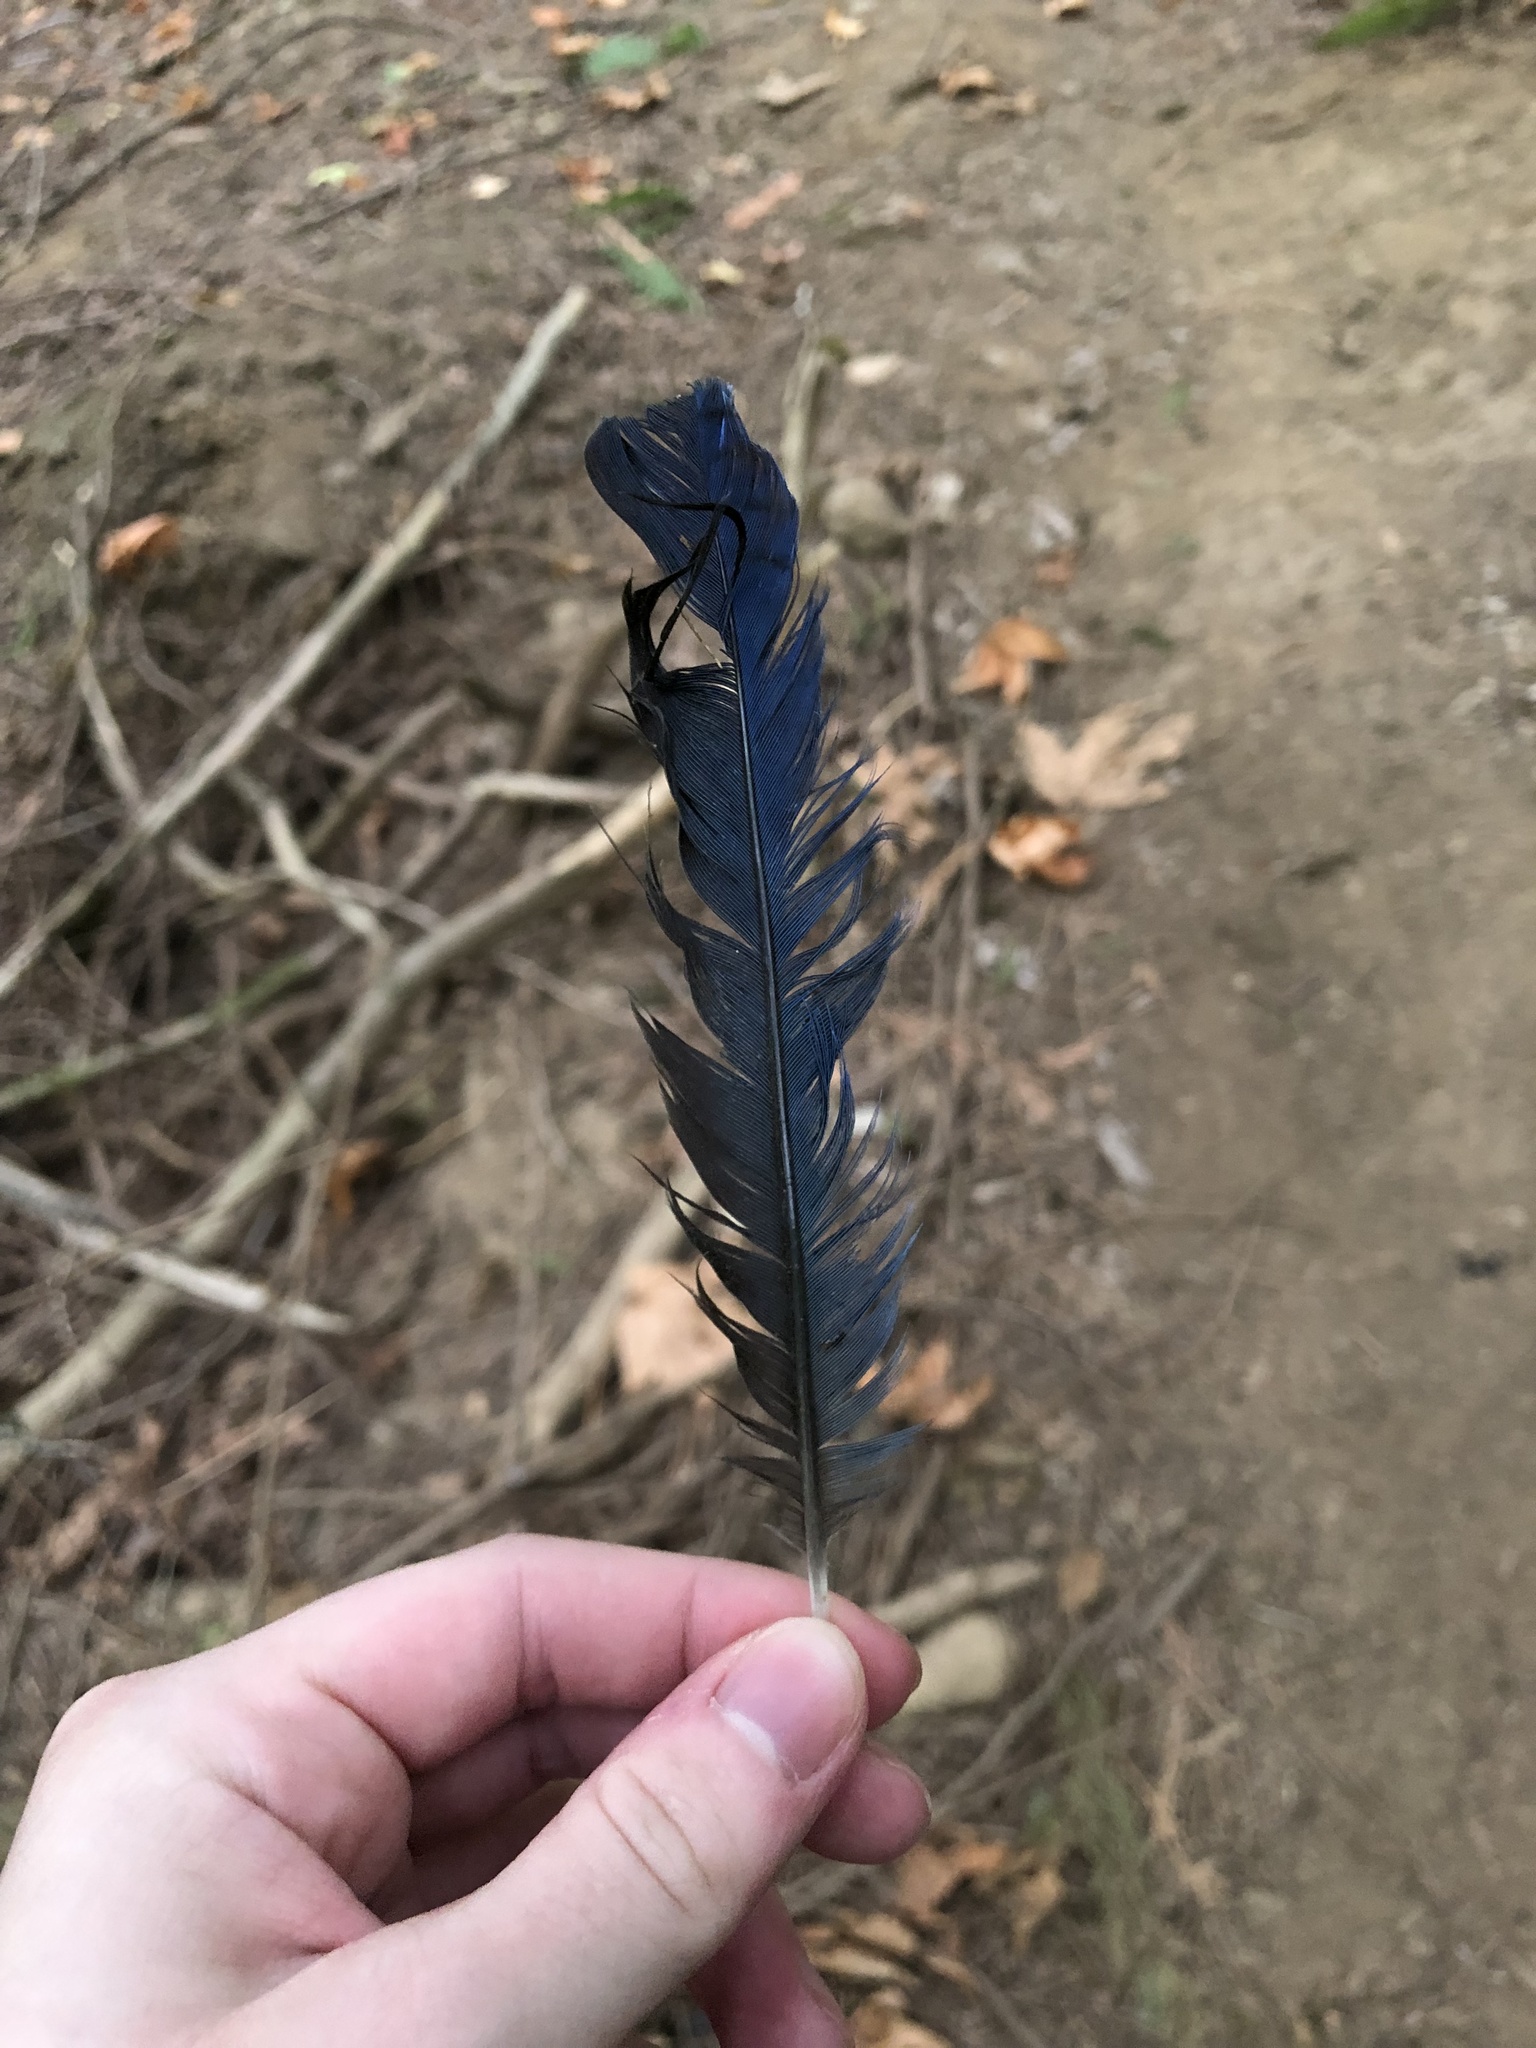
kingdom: Animalia
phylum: Chordata
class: Aves
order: Passeriformes
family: Corvidae
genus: Cyanocitta
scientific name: Cyanocitta stelleri
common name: Steller's jay
